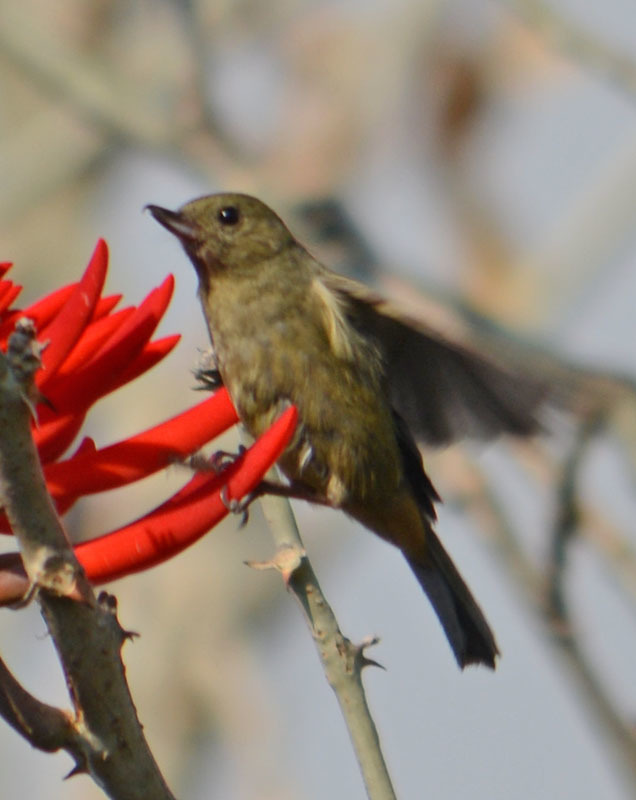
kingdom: Animalia
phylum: Chordata
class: Aves
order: Passeriformes
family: Thraupidae
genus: Diglossa
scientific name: Diglossa baritula
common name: Cinnamon-bellied flowerpiercer
